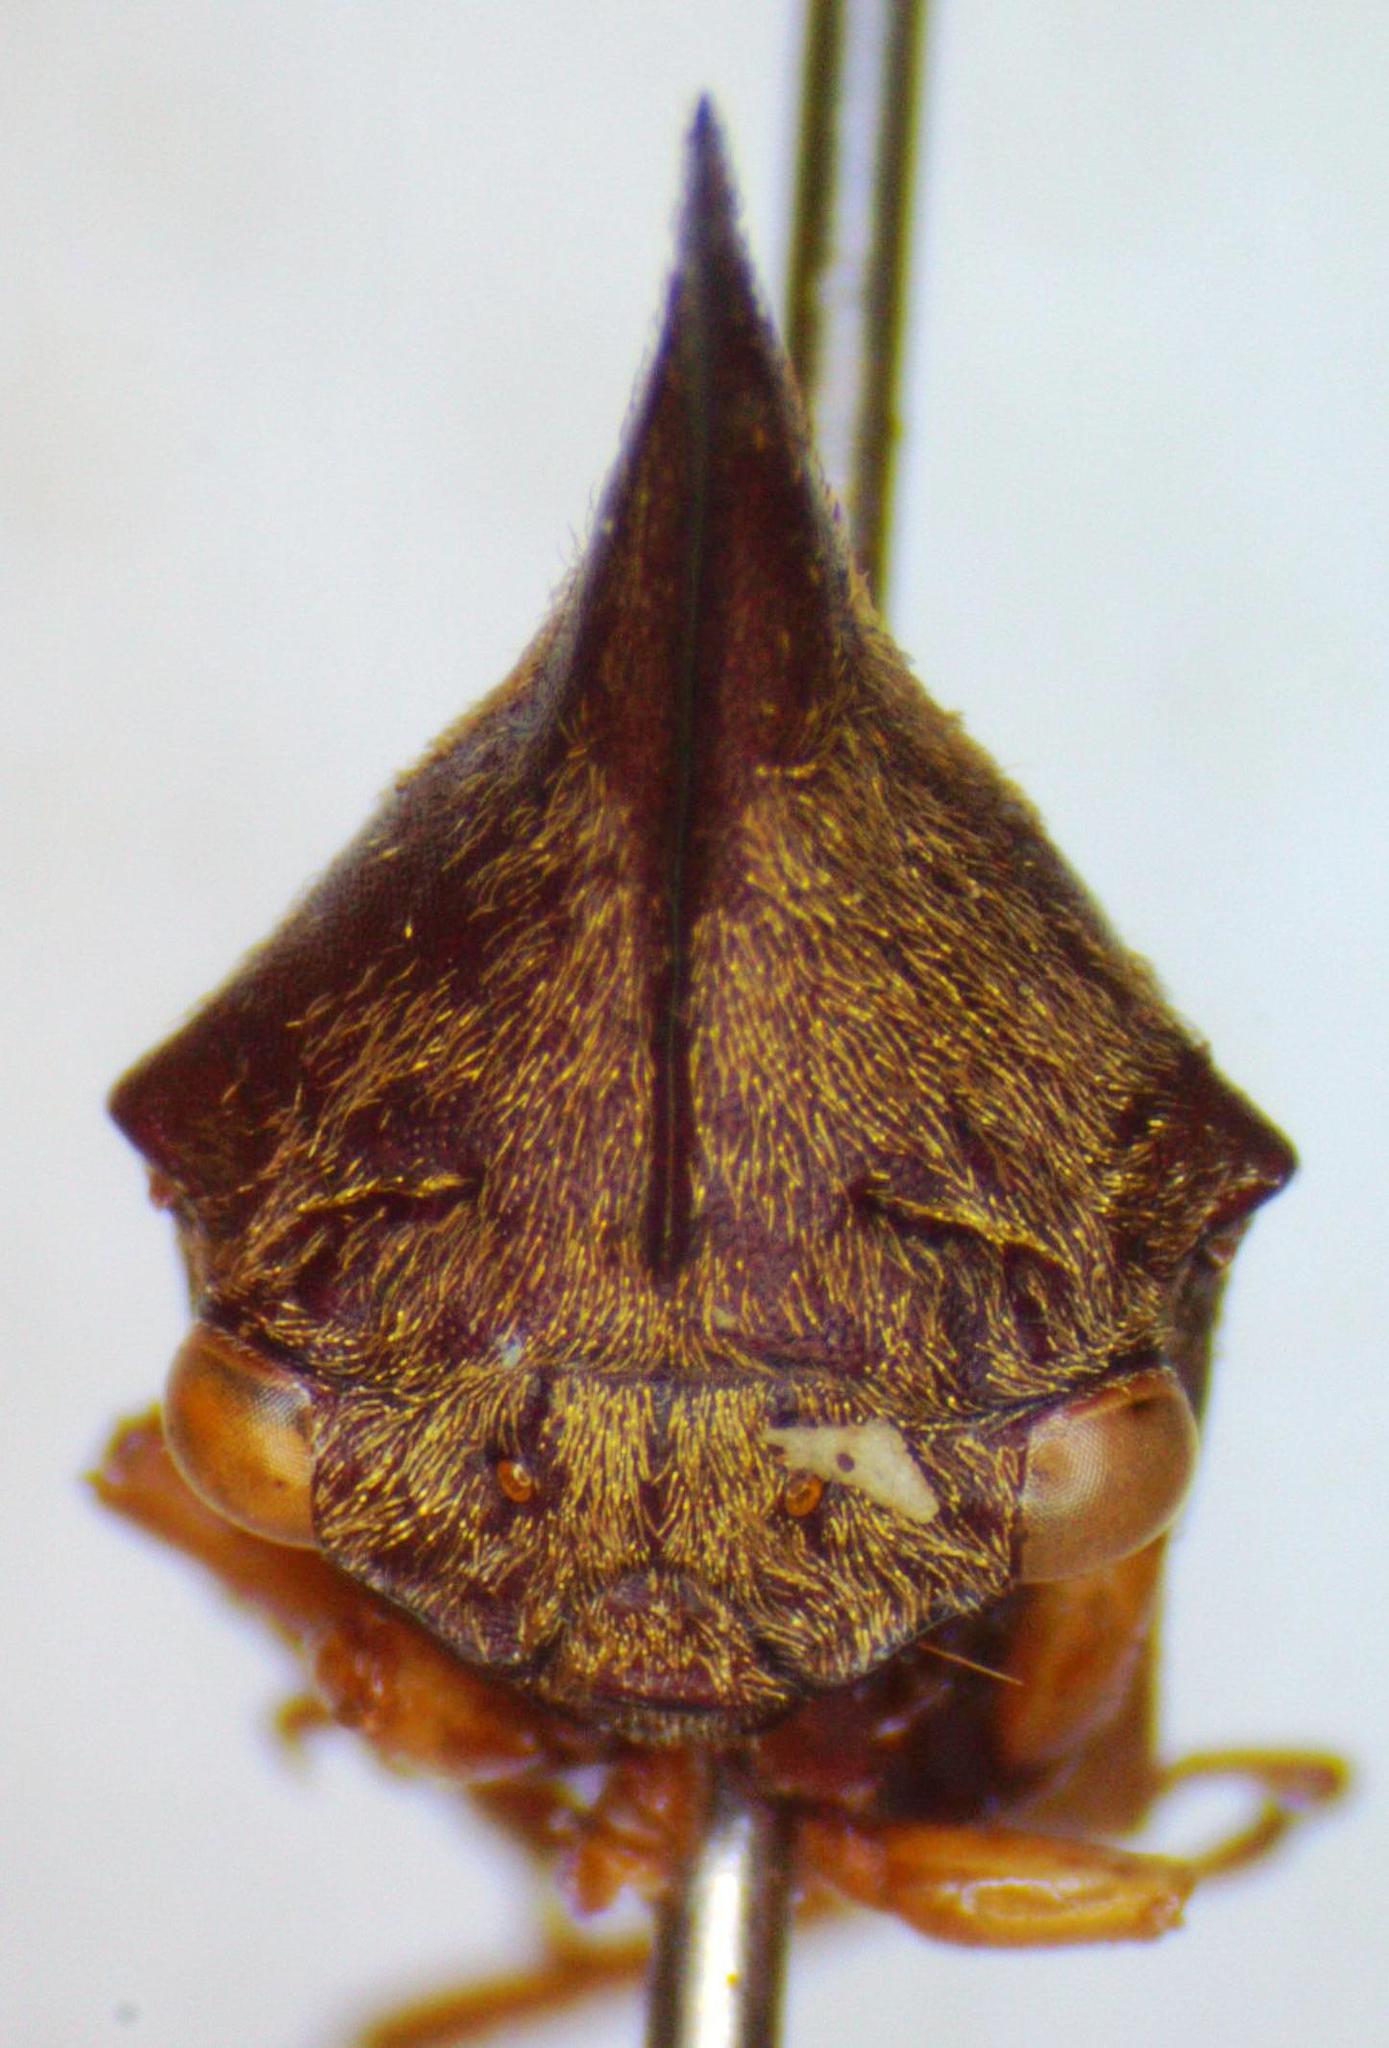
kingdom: Animalia
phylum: Arthropoda
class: Insecta
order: Hemiptera
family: Membracidae
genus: Aconophora
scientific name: Aconophora mexicana
